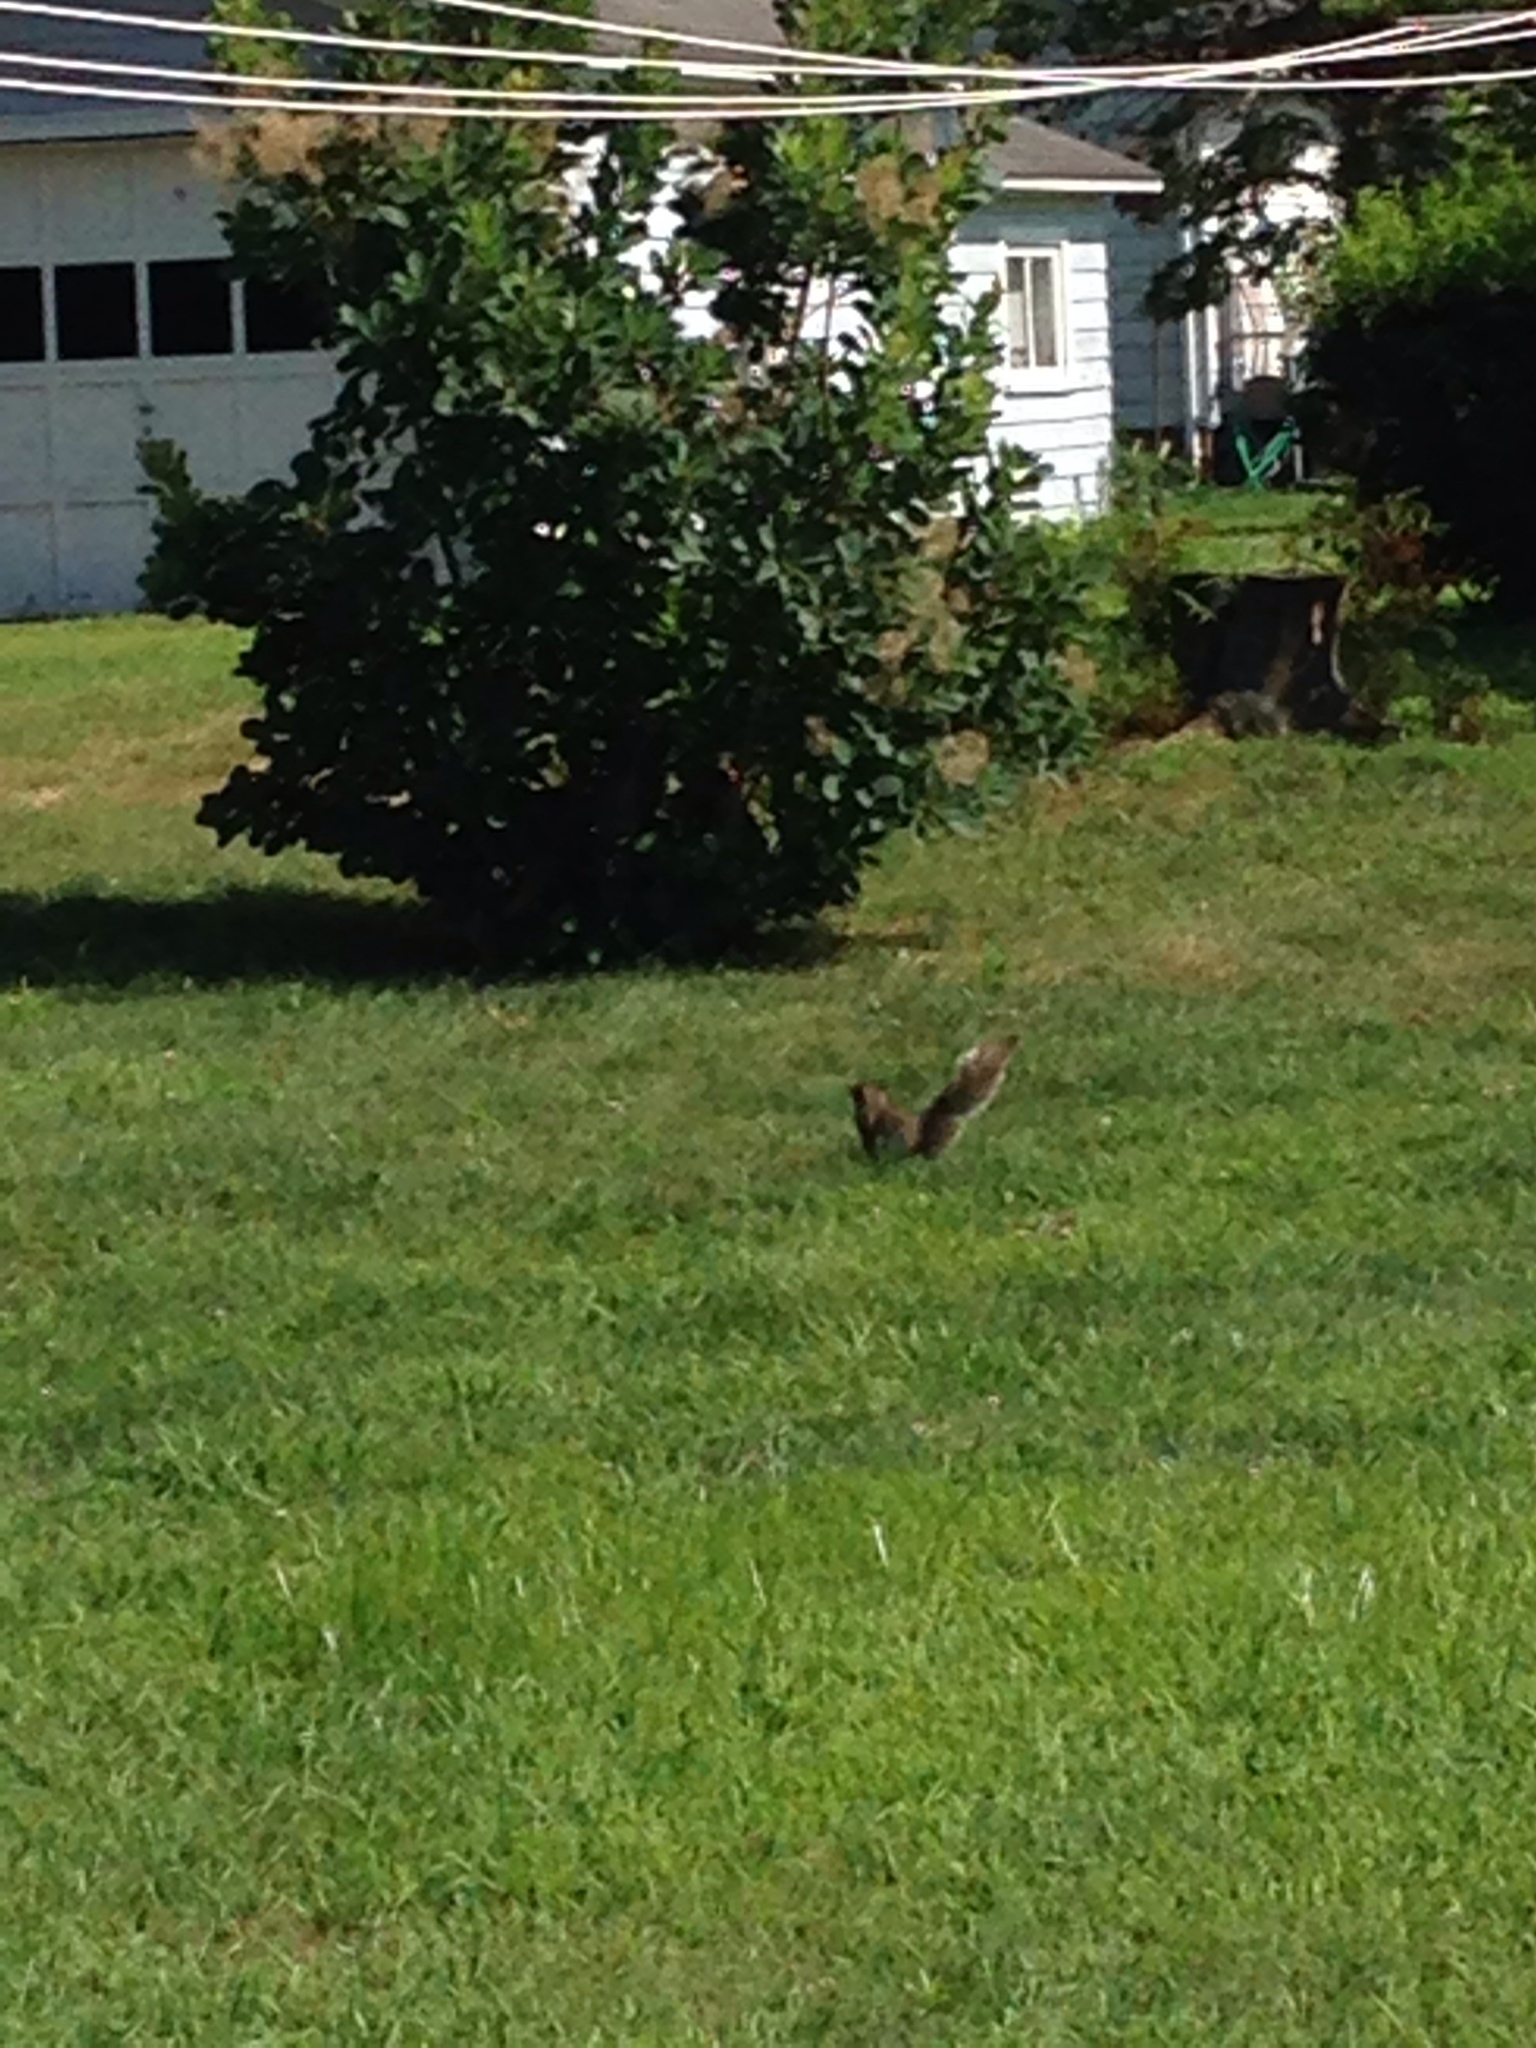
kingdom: Animalia
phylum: Chordata
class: Mammalia
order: Rodentia
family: Sciuridae
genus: Sciurus
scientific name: Sciurus carolinensis
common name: Eastern gray squirrel
